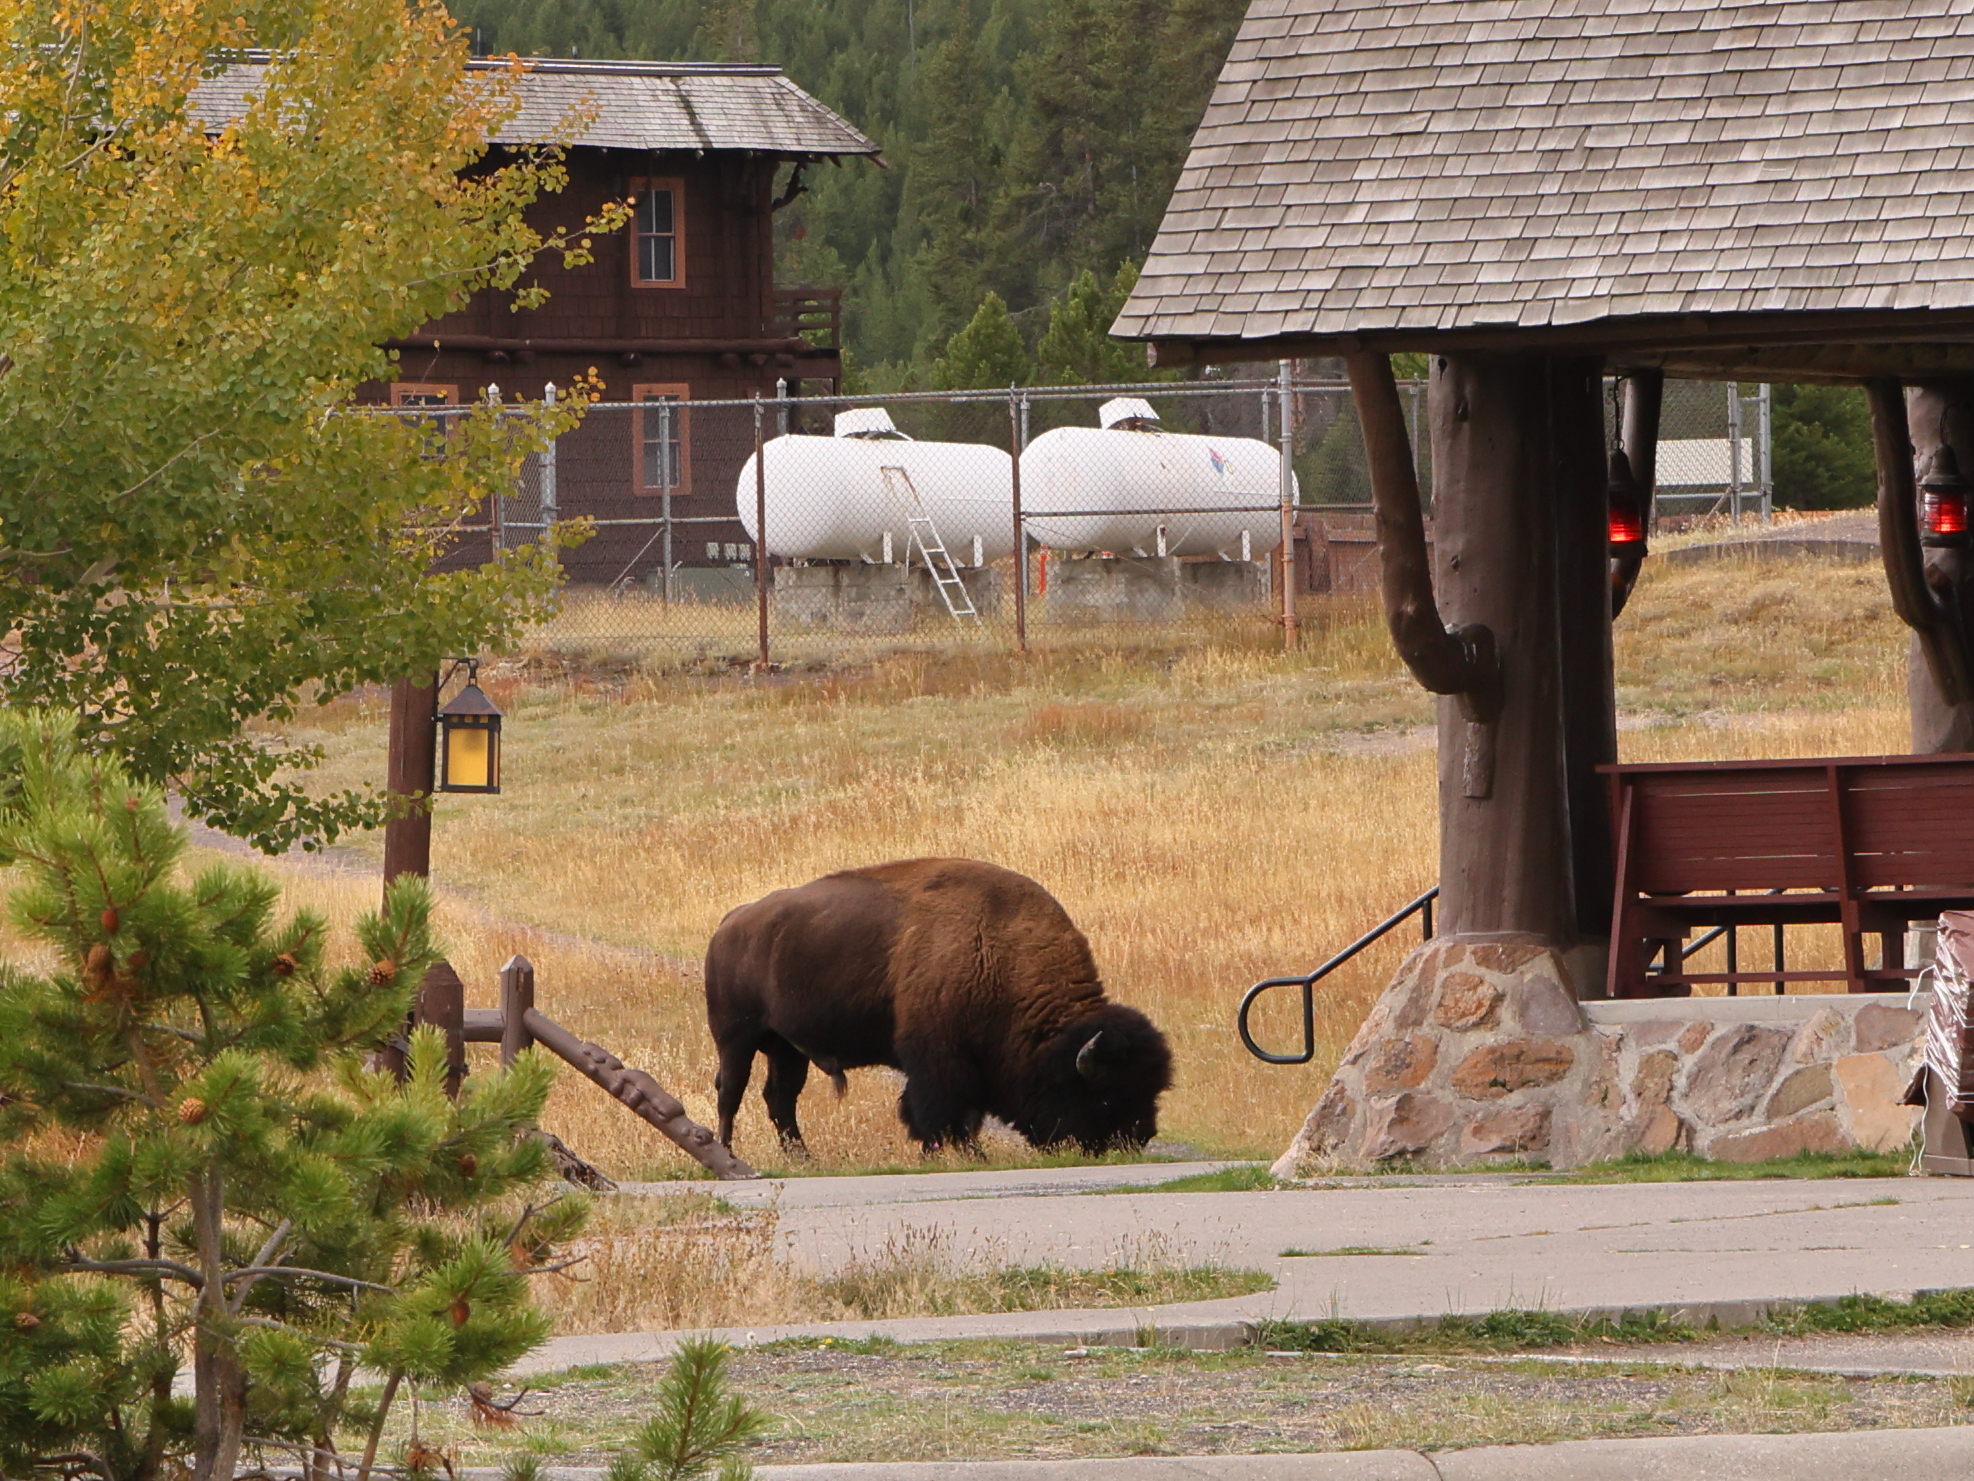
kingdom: Animalia
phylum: Chordata
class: Mammalia
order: Artiodactyla
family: Bovidae
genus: Bison
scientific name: Bison bison
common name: American bison
